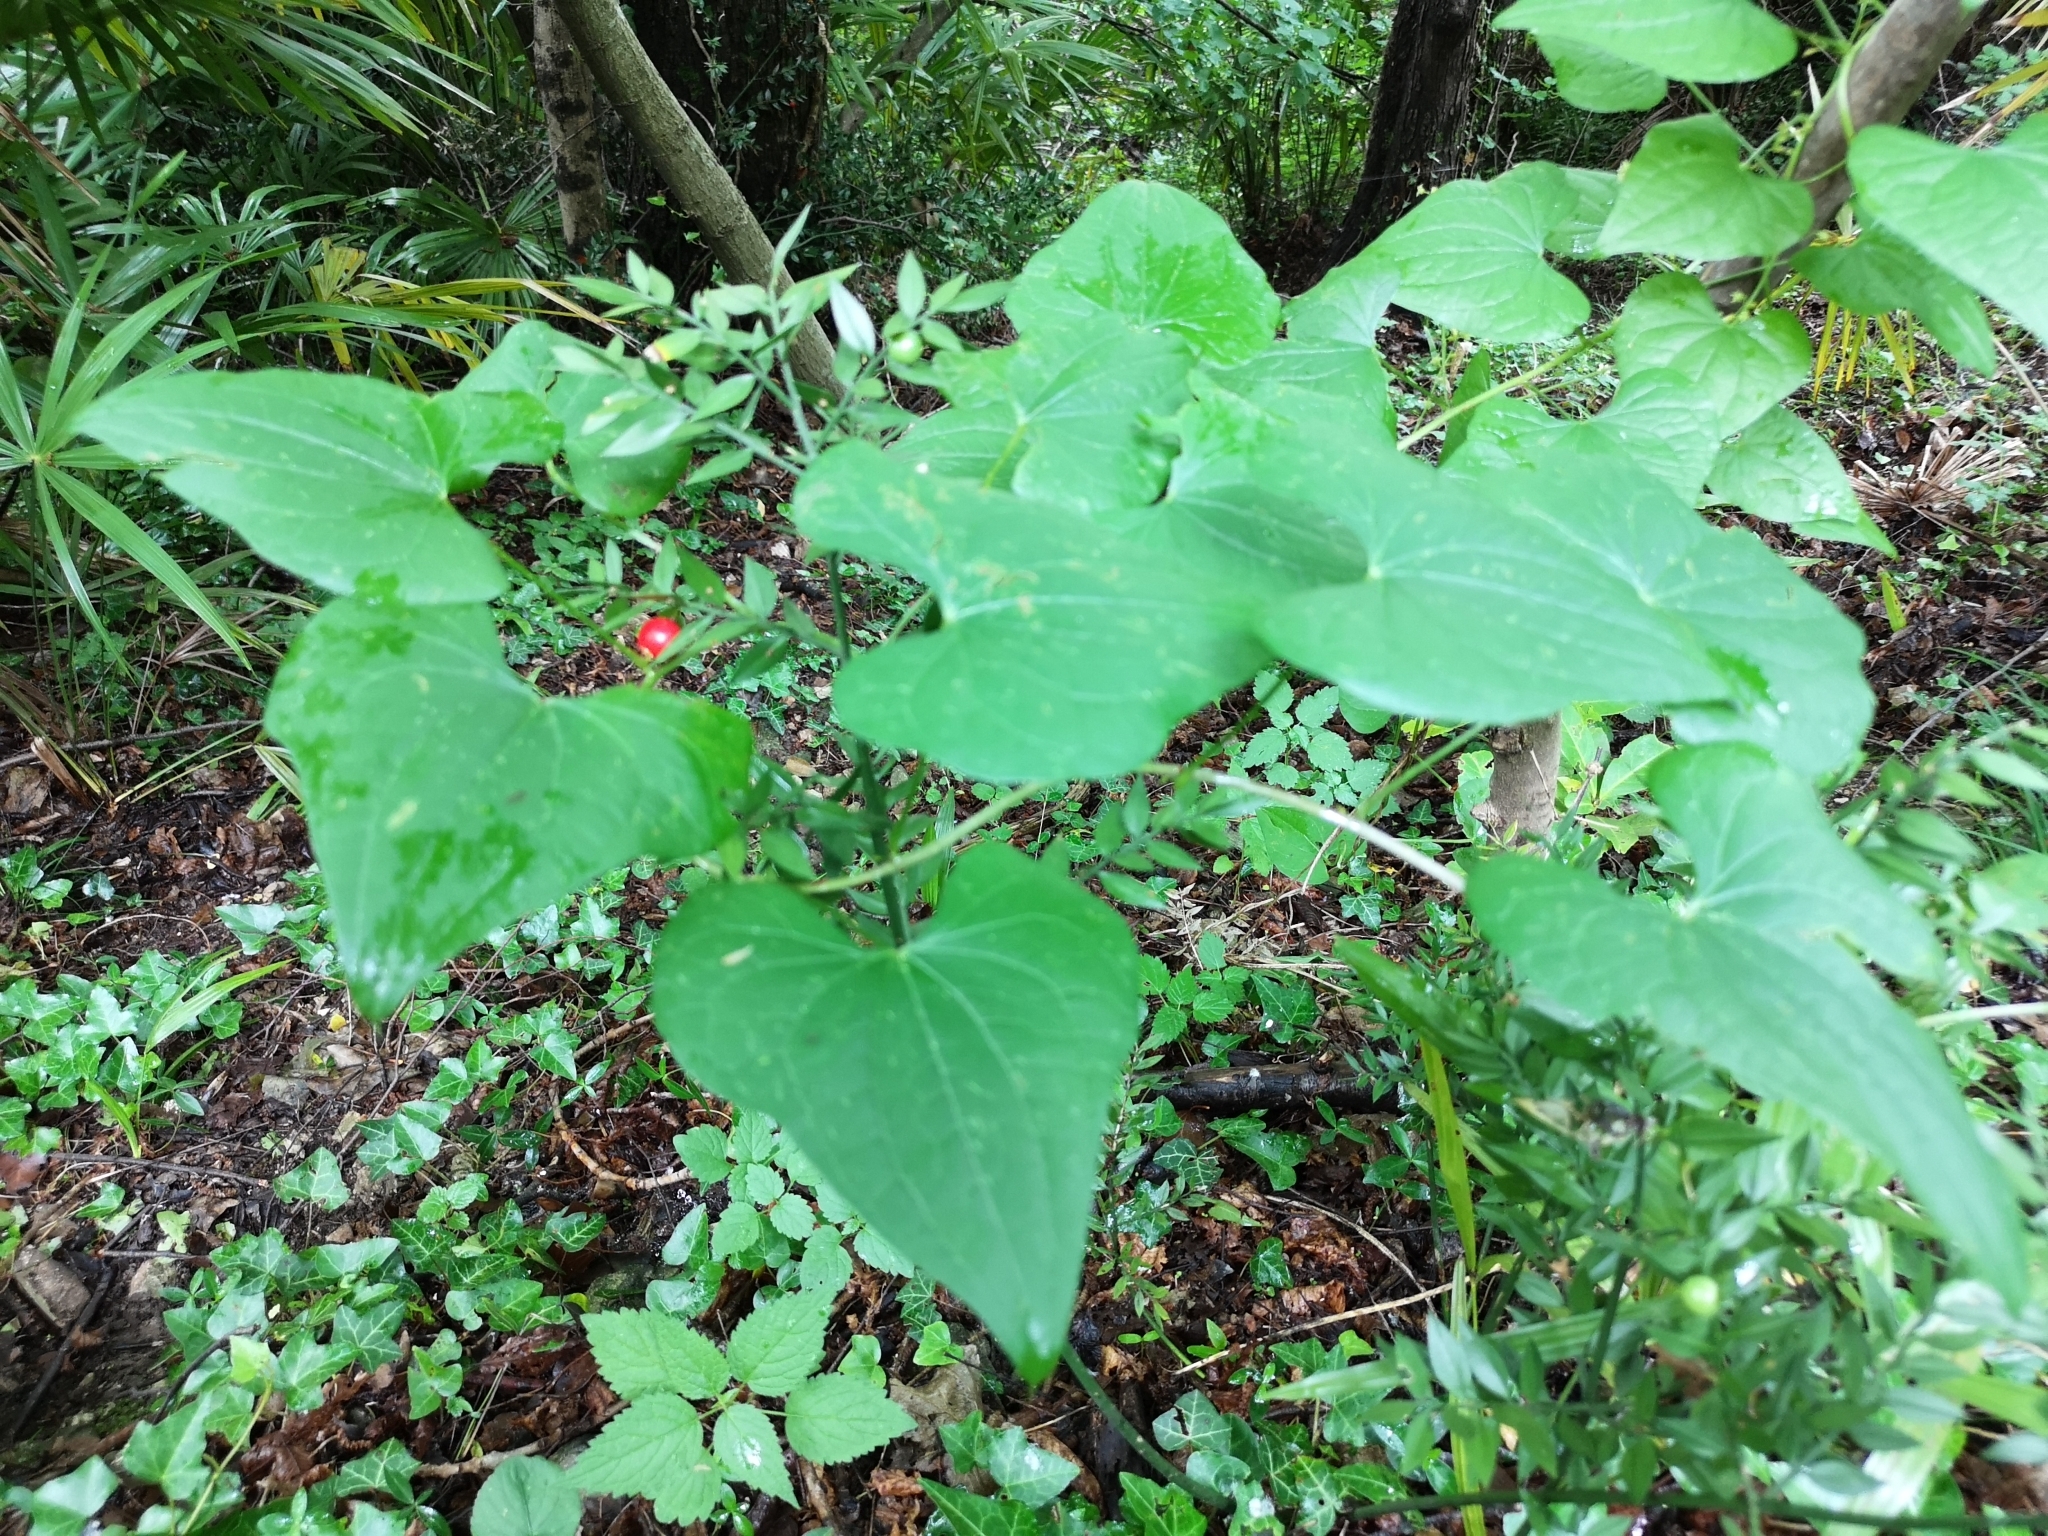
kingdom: Plantae
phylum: Tracheophyta
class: Liliopsida
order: Dioscoreales
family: Dioscoreaceae
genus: Dioscorea
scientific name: Dioscorea communis
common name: Black-bindweed
